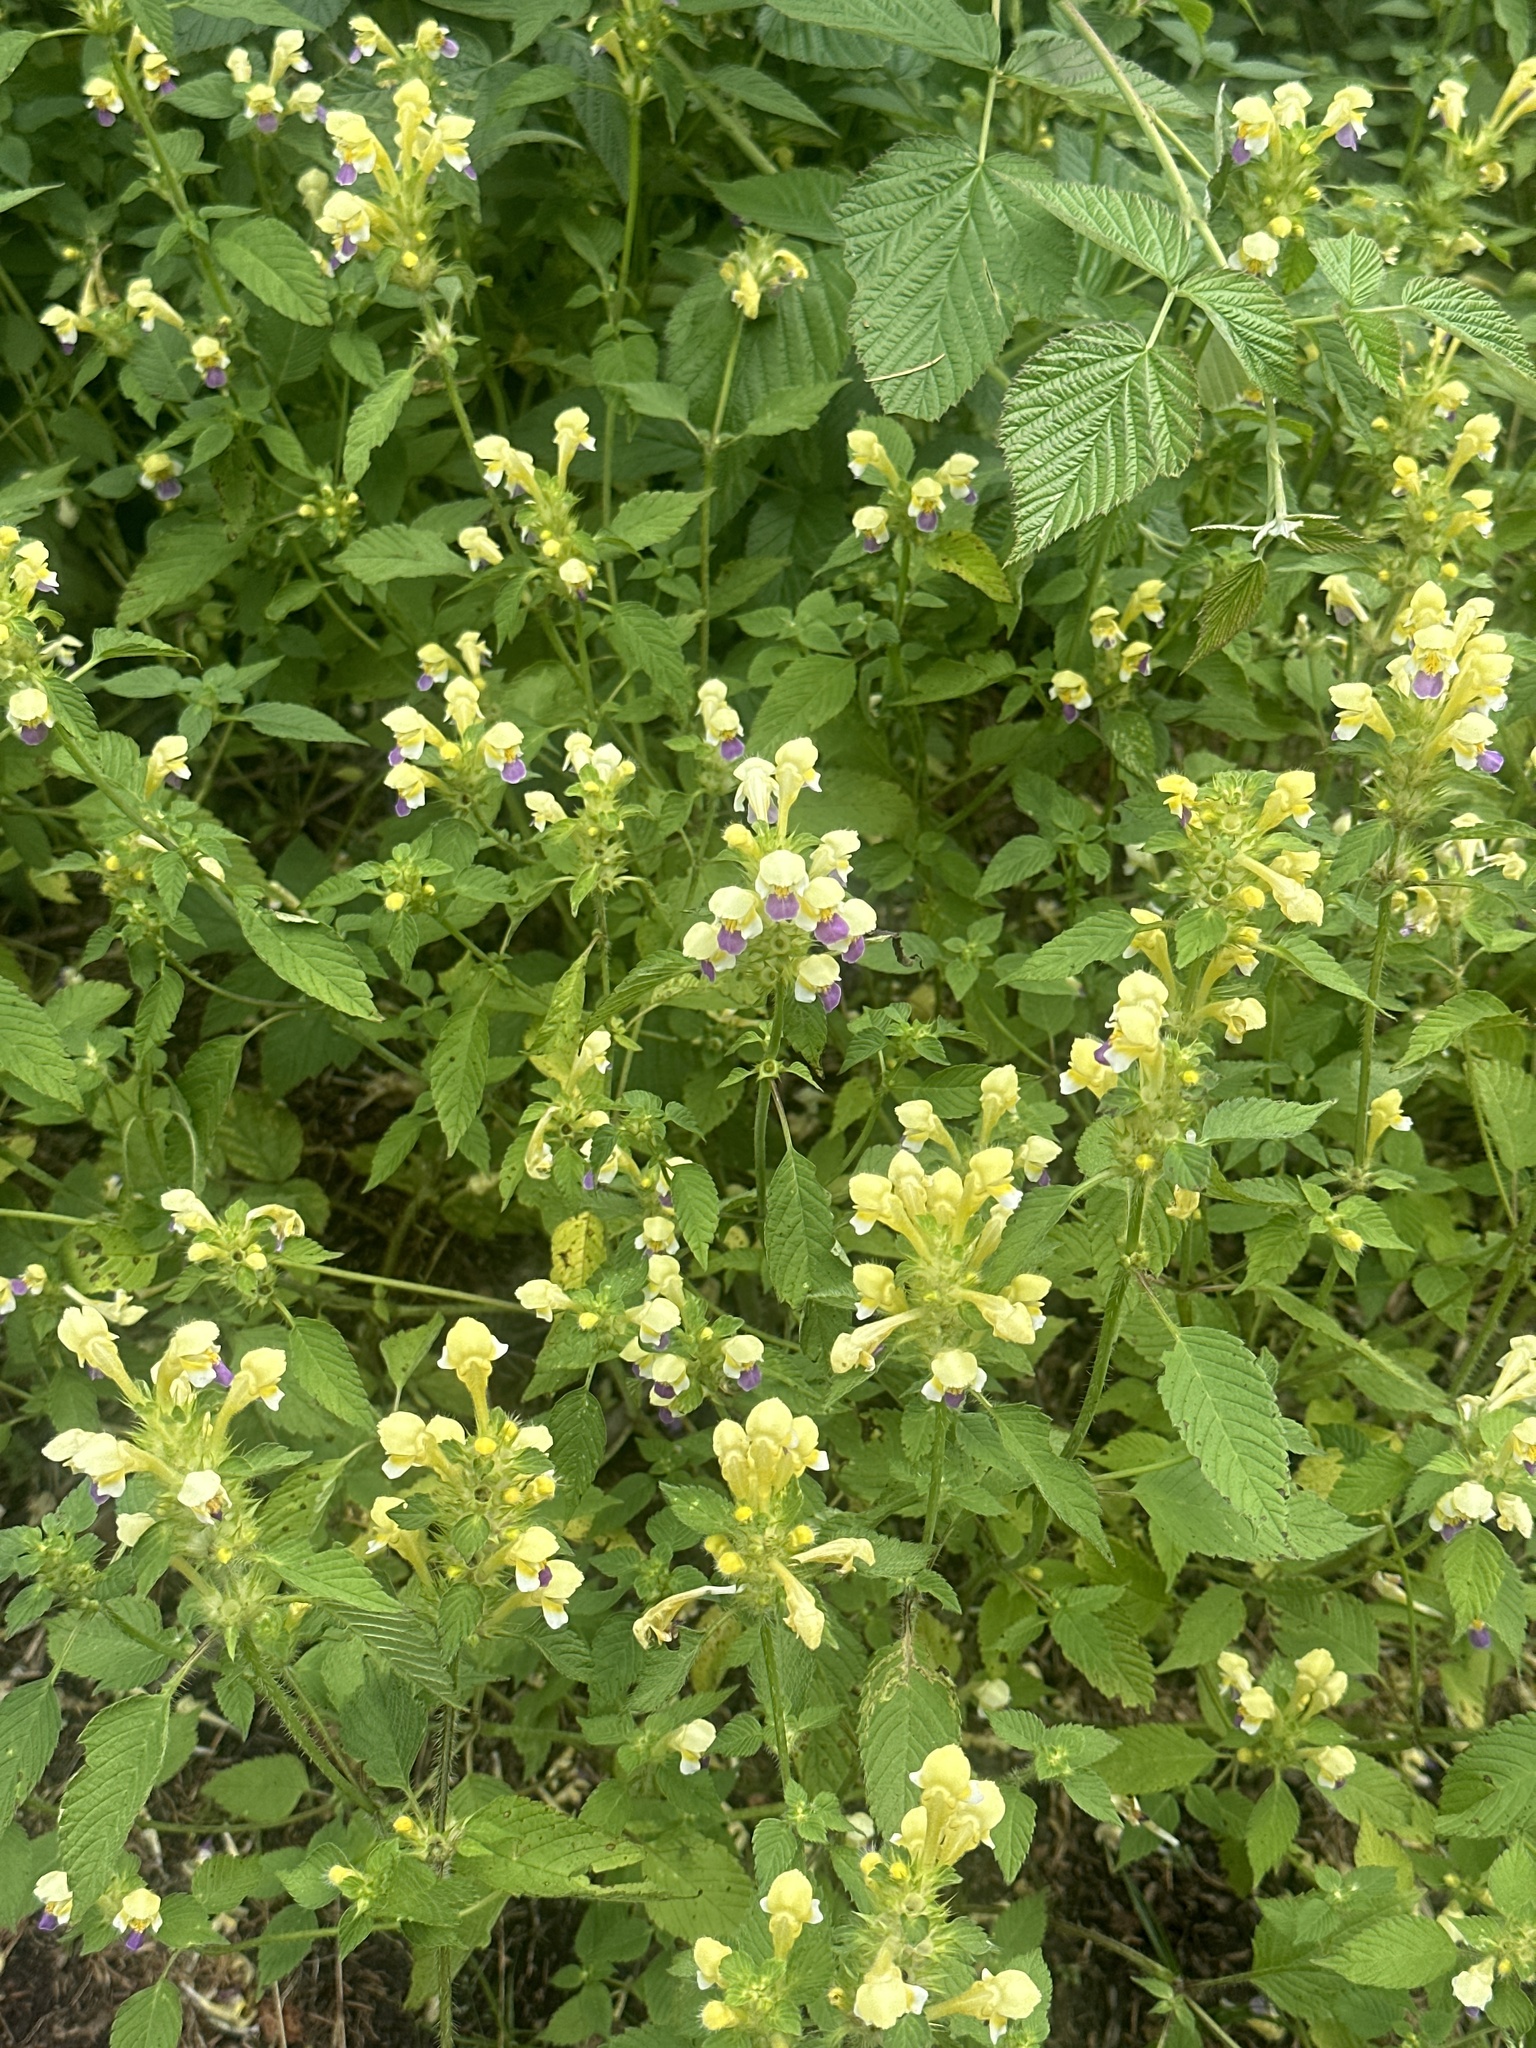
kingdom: Plantae
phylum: Tracheophyta
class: Magnoliopsida
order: Lamiales
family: Lamiaceae
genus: Galeopsis
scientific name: Galeopsis speciosa
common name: Large-flowered hemp-nettle
